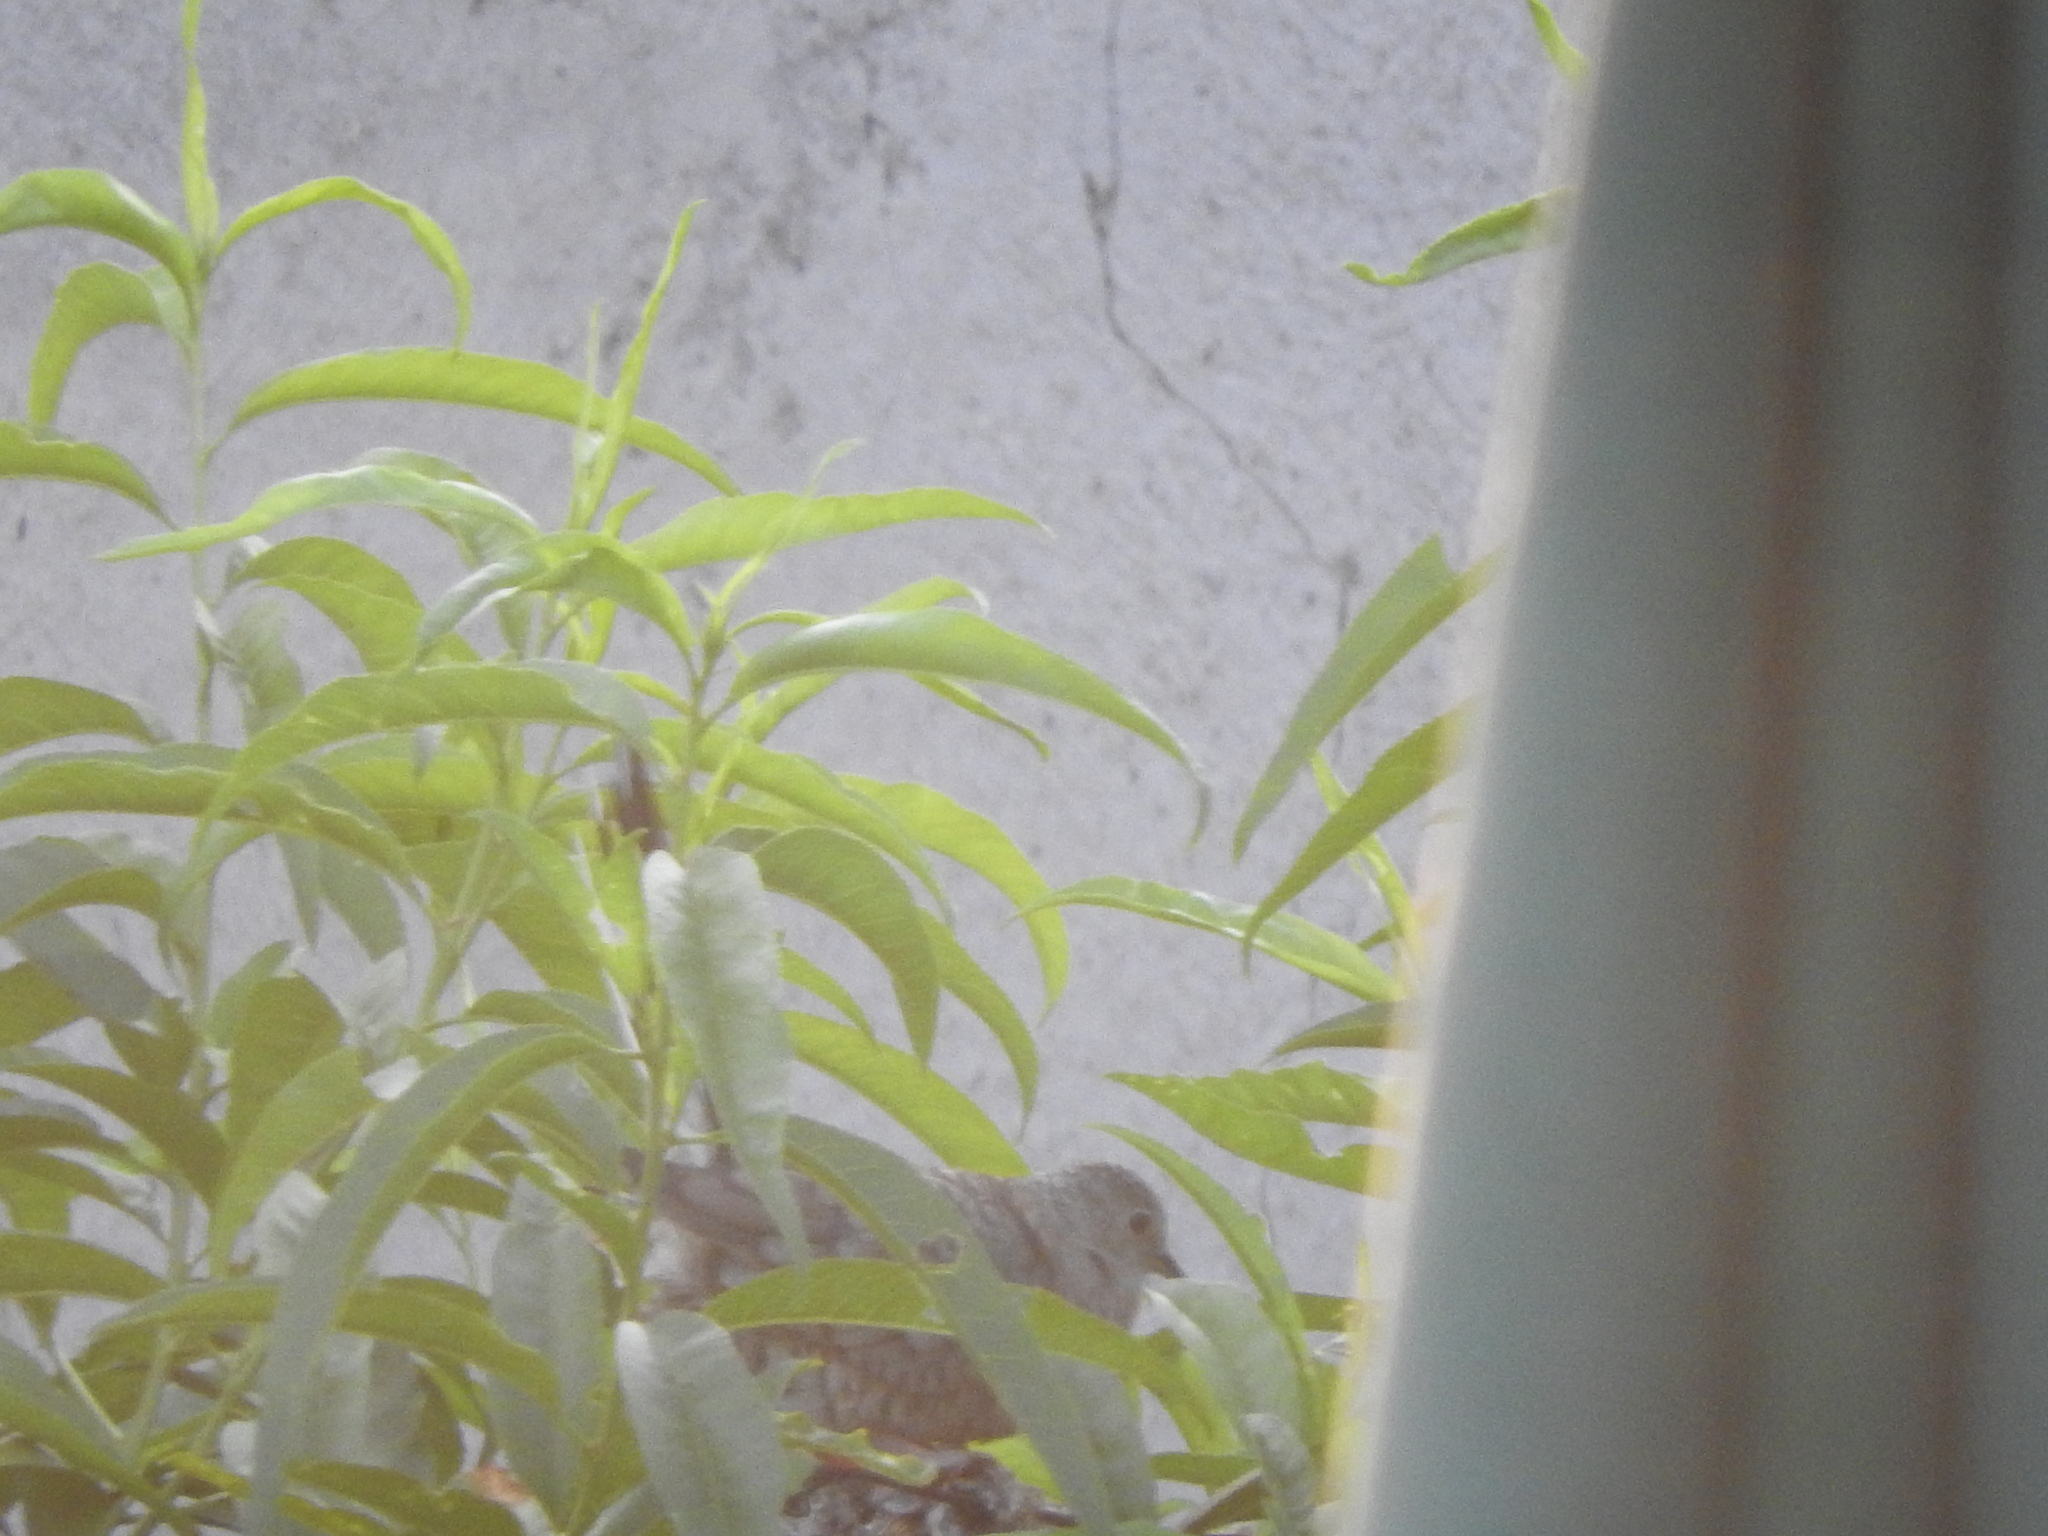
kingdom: Animalia
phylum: Chordata
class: Aves
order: Columbiformes
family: Columbidae
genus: Columbina
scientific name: Columbina inca
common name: Inca dove
